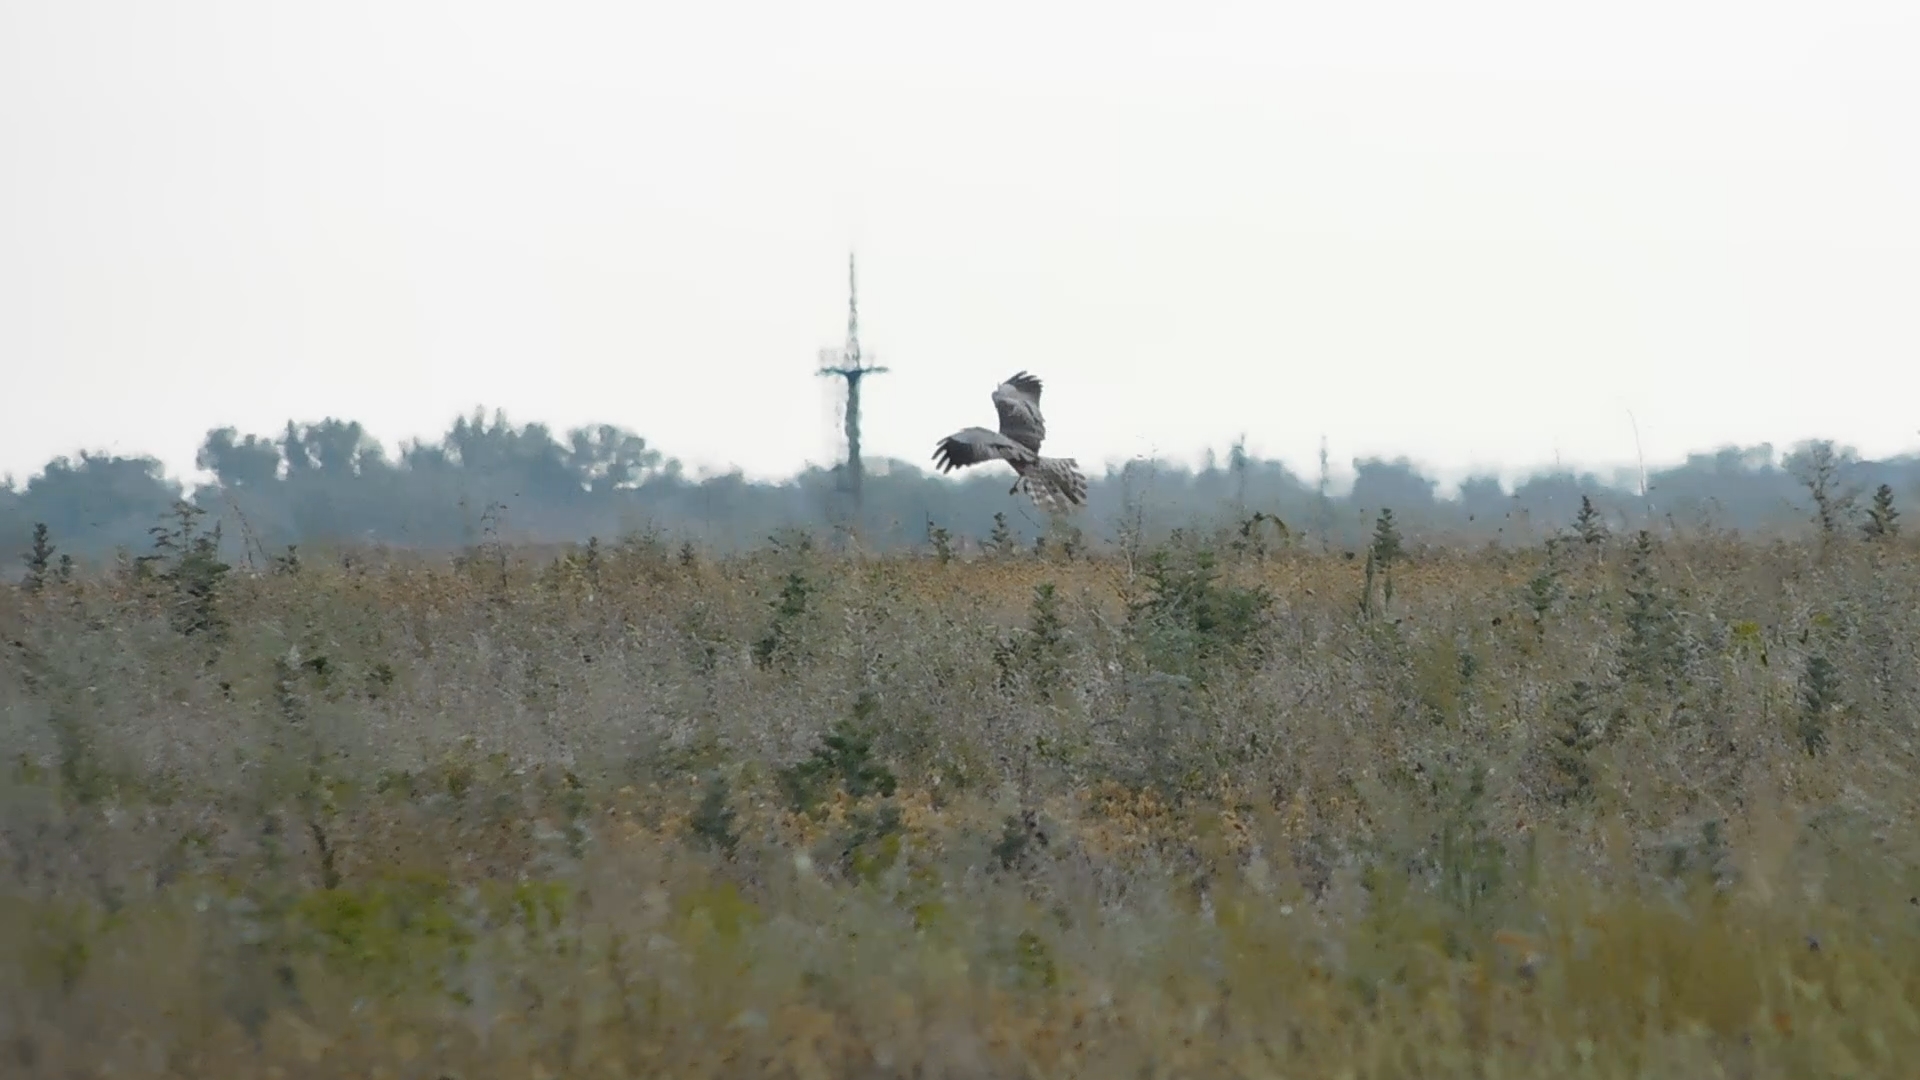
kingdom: Animalia
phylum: Chordata
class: Aves
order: Accipitriformes
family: Accipitridae
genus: Circus
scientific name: Circus pygargus
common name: Montagu's harrier
